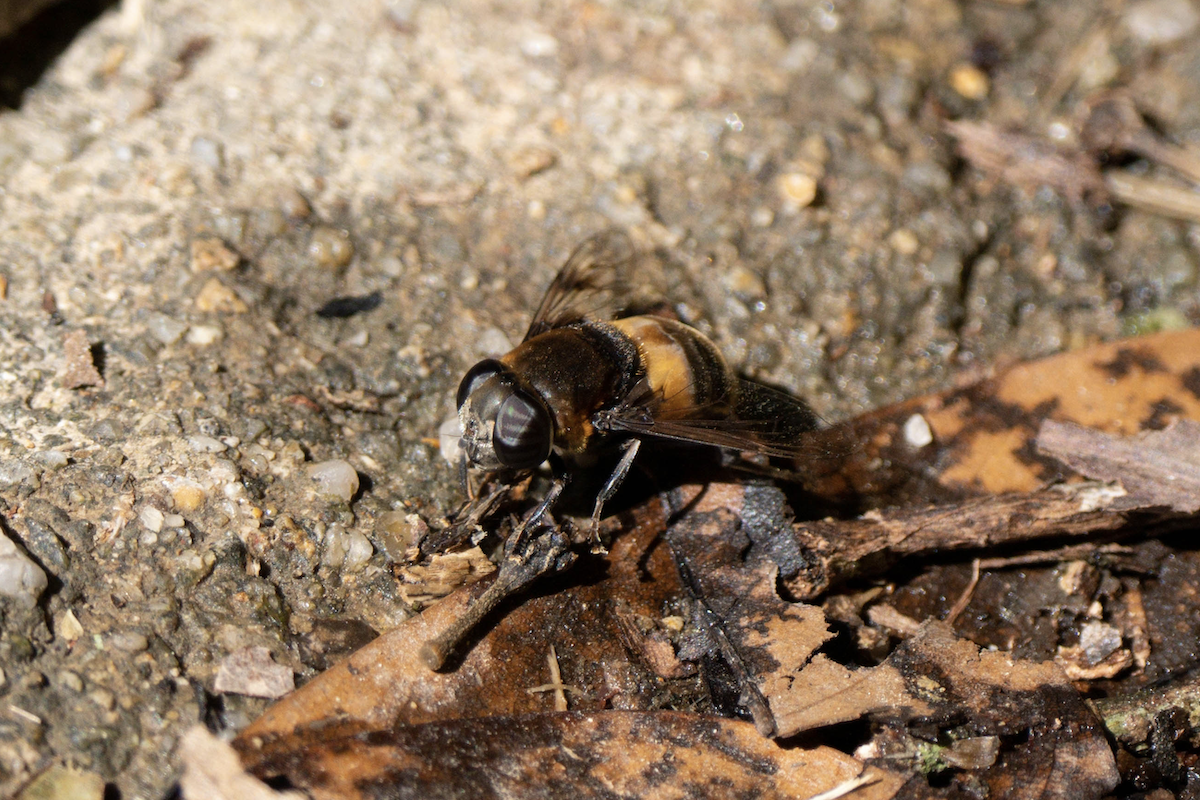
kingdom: Animalia
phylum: Arthropoda
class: Insecta
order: Diptera
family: Syrphidae
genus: Phytomia
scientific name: Phytomia zonata
